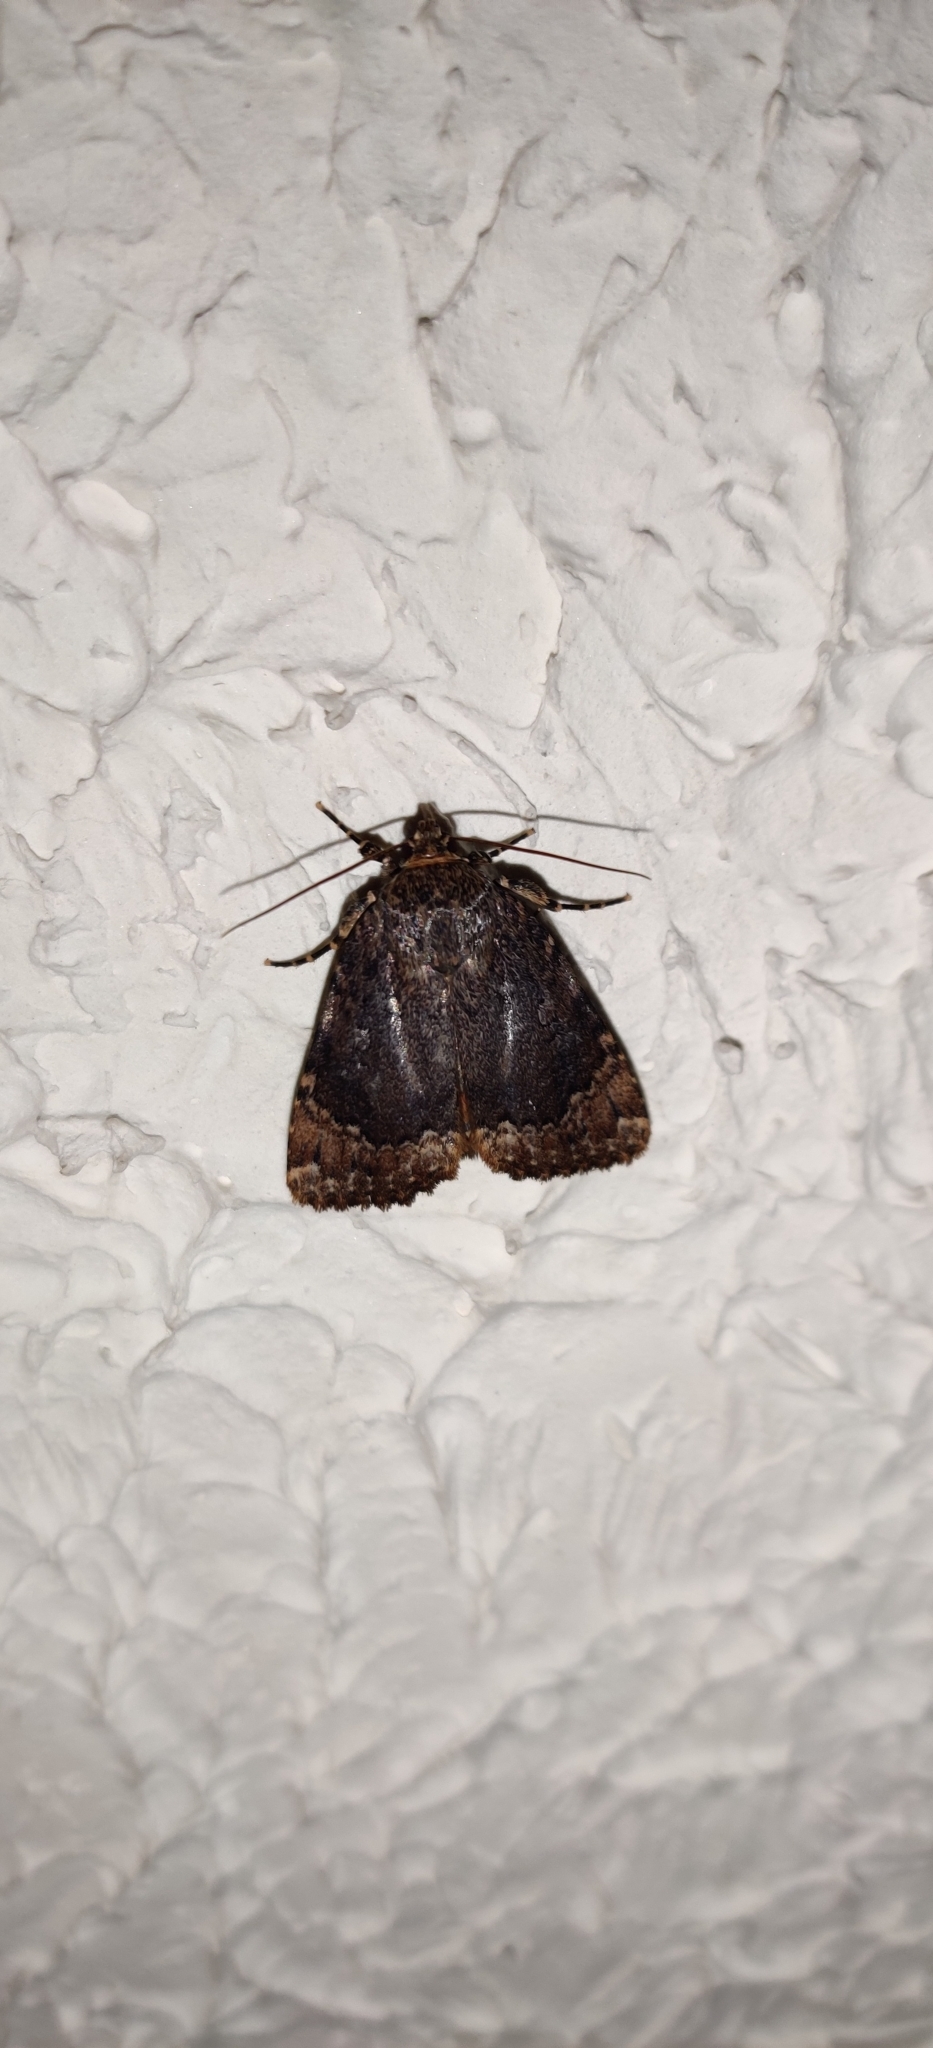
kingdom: Animalia
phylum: Arthropoda
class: Insecta
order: Lepidoptera
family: Noctuidae
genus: Amphipyra
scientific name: Amphipyra pyramidoides
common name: American copper underwing
